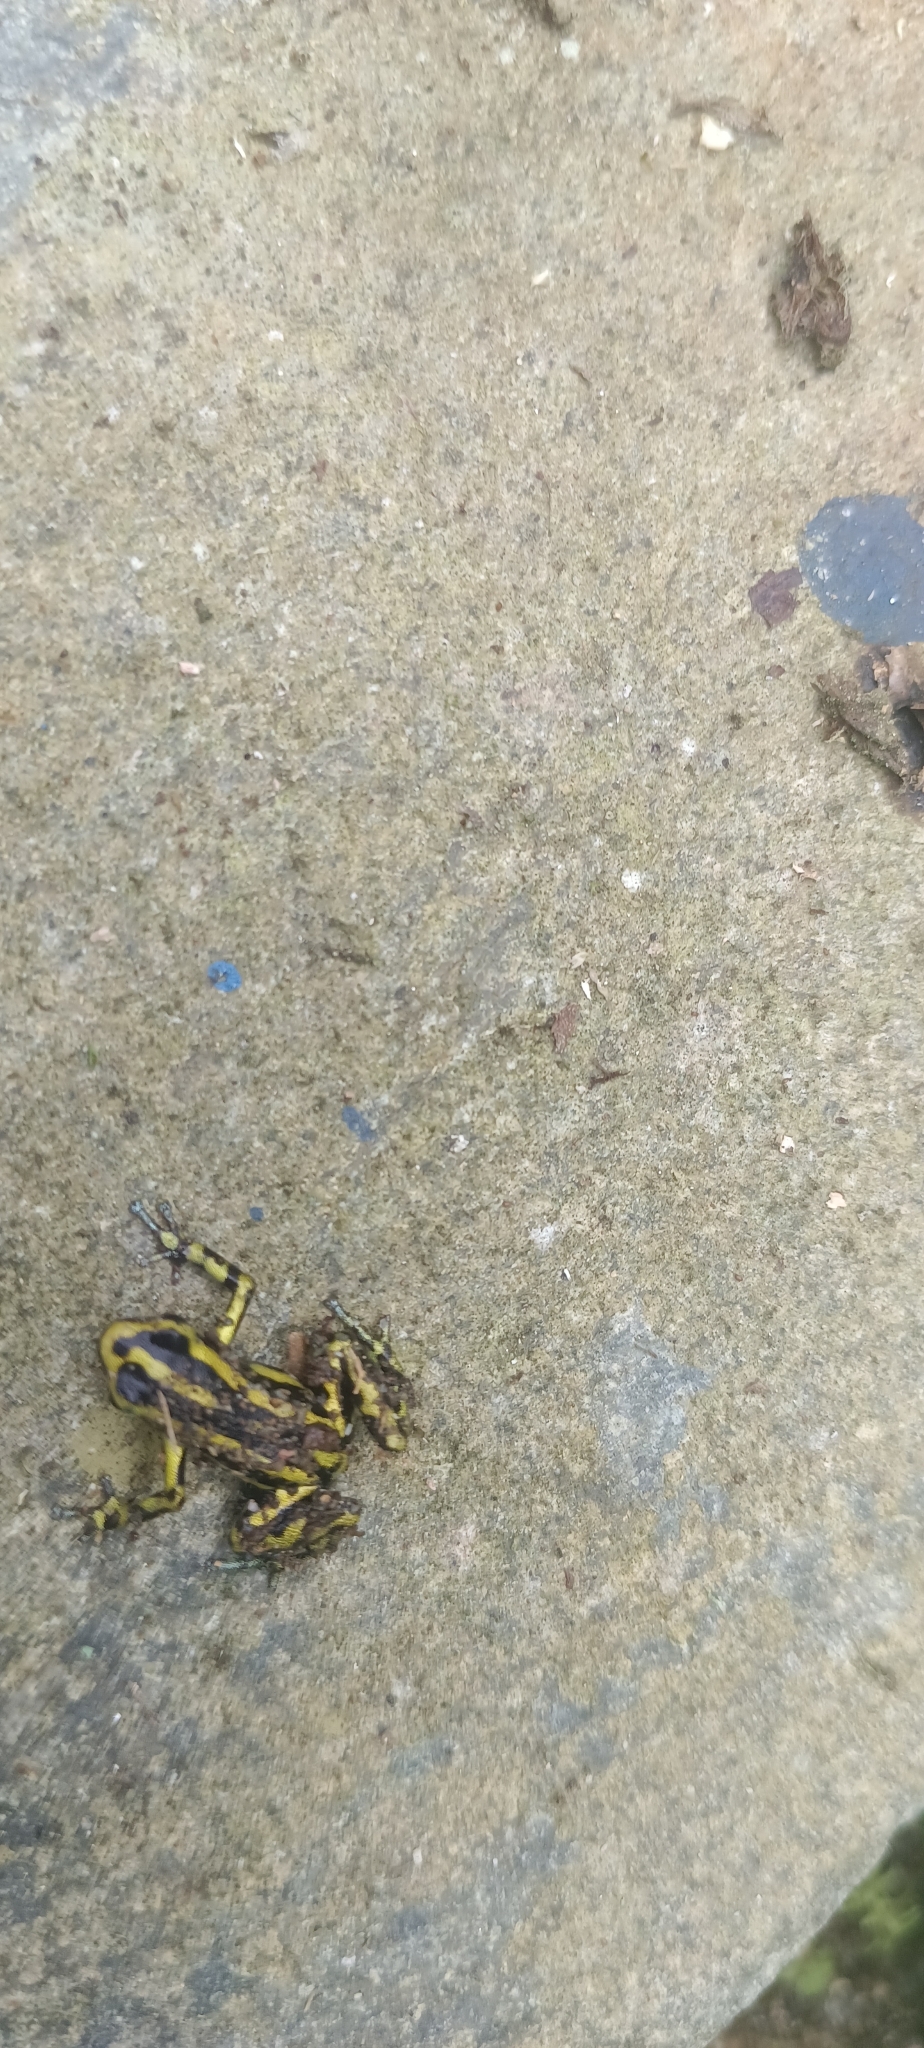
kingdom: Animalia
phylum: Chordata
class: Amphibia
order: Anura
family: Dendrobatidae
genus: Andinobates
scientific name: Andinobates fulguritus
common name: Yellow-bellied poison frog
